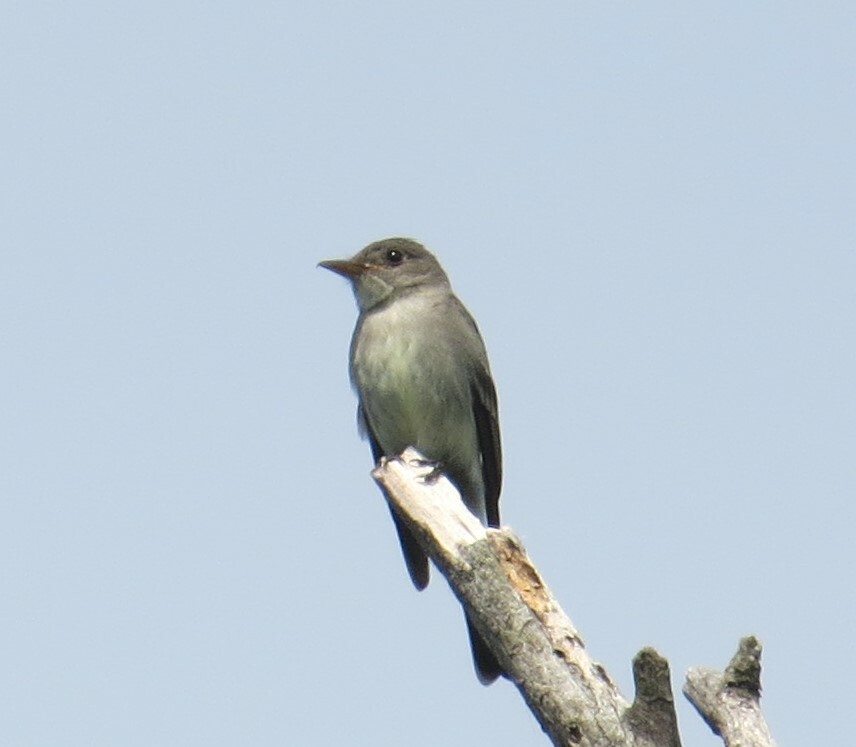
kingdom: Animalia
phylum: Chordata
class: Aves
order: Passeriformes
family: Tyrannidae
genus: Contopus
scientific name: Contopus virens
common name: Eastern wood-pewee
